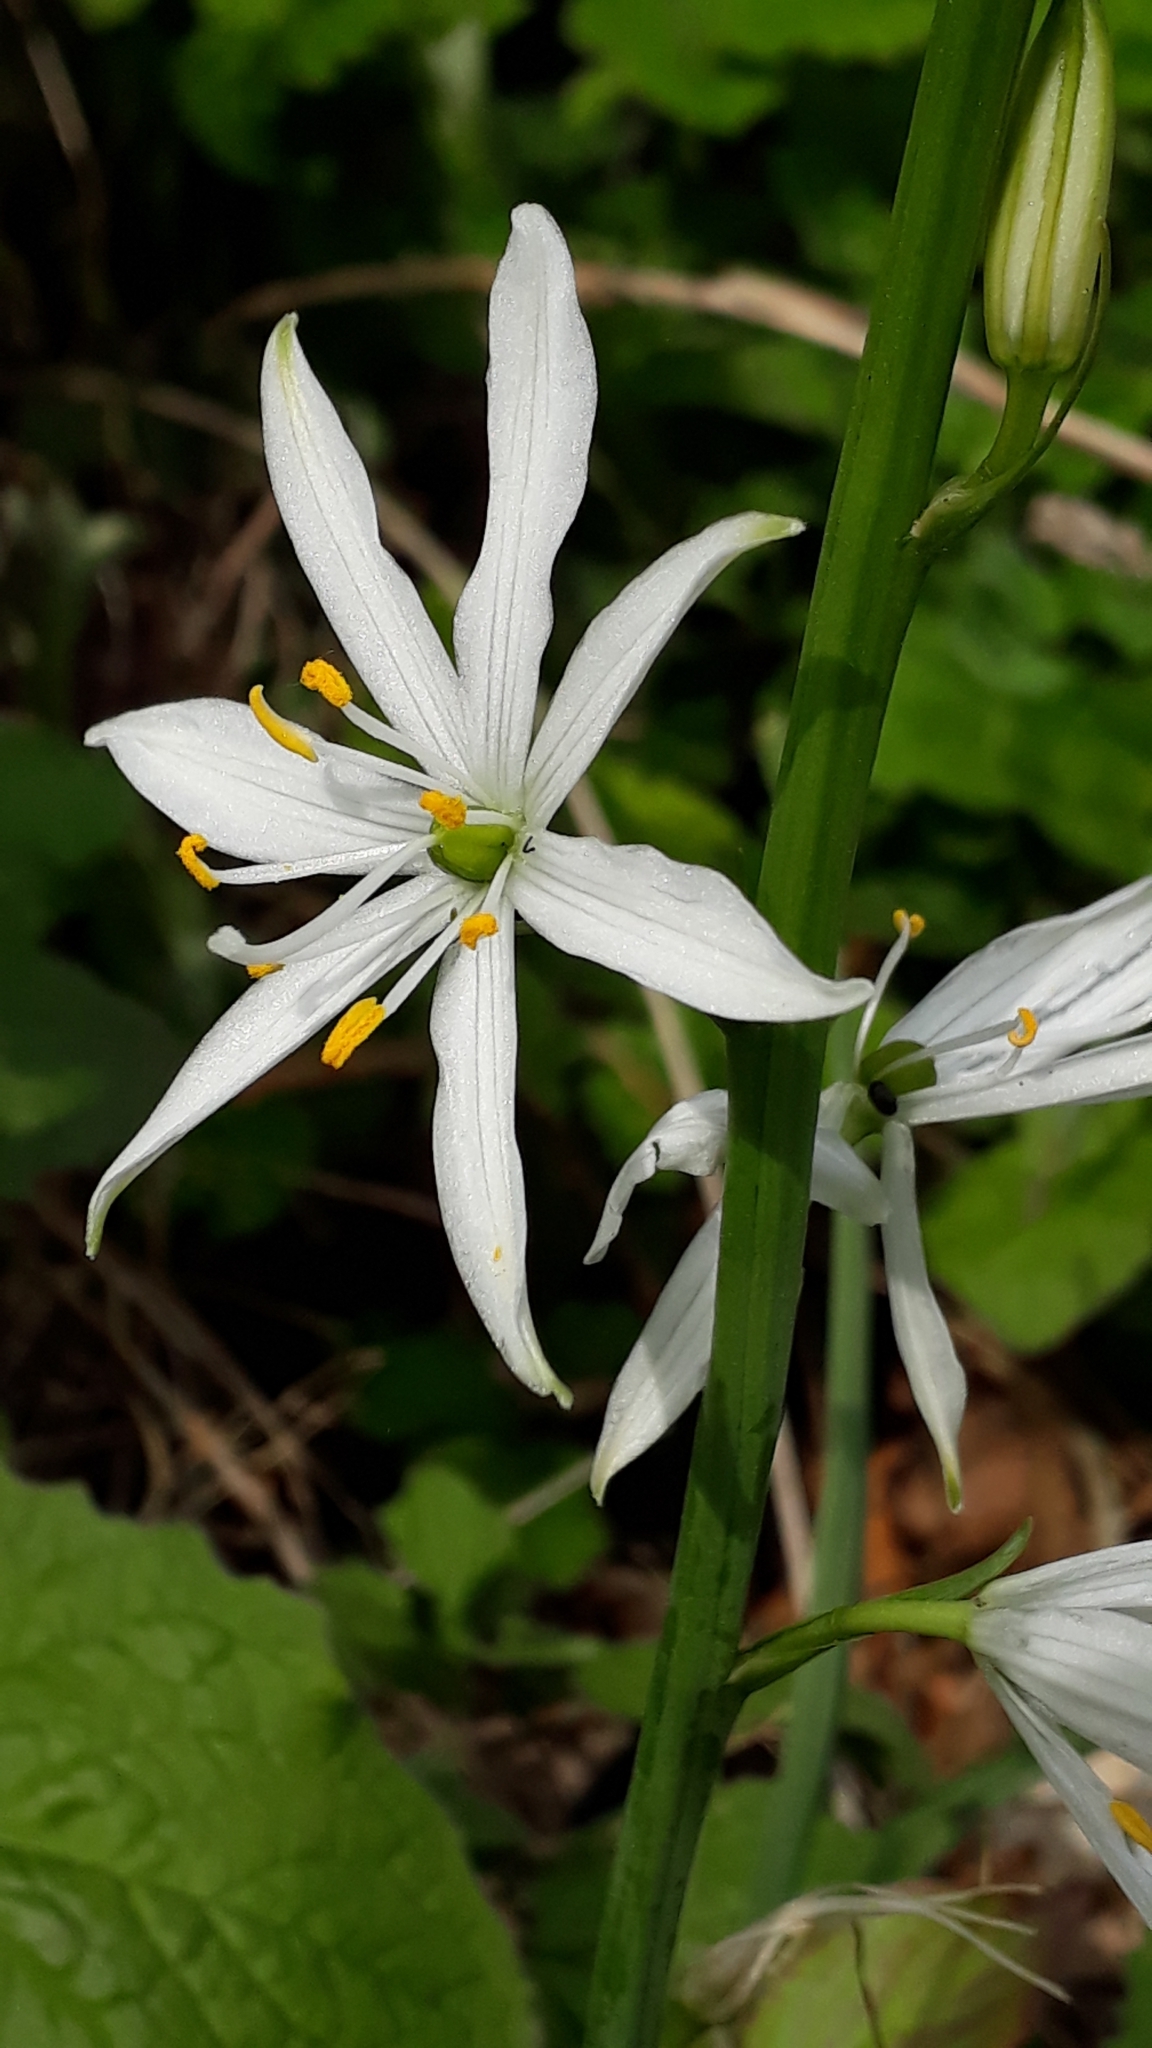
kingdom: Plantae
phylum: Tracheophyta
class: Liliopsida
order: Asparagales
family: Asparagaceae
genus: Anthericum
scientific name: Anthericum liliago
